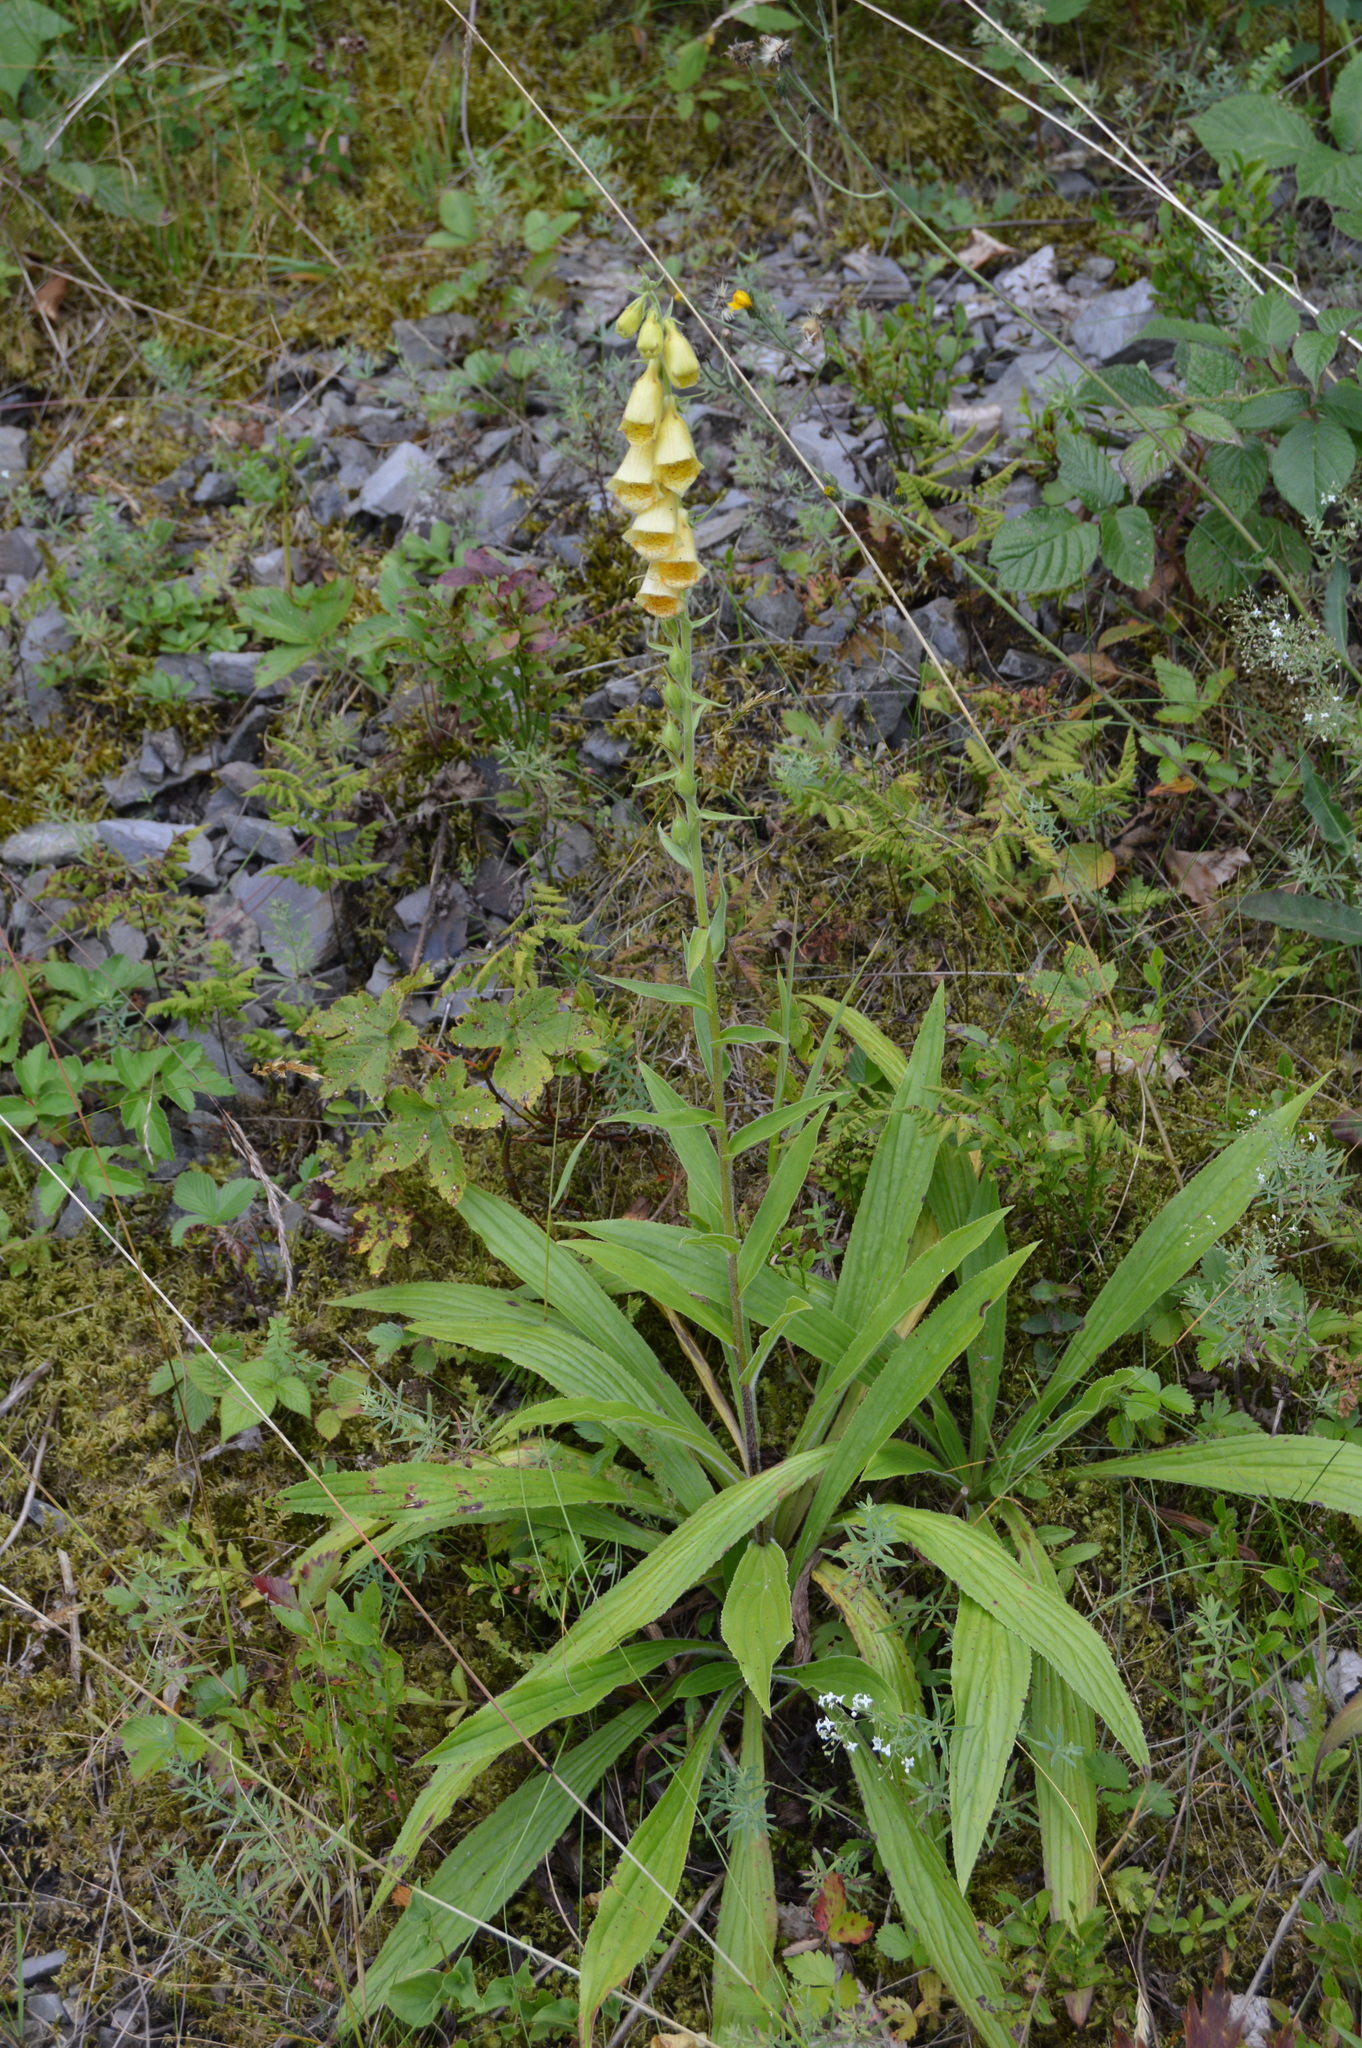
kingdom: Plantae
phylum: Tracheophyta
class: Magnoliopsida
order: Lamiales
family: Plantaginaceae
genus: Digitalis
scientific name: Digitalis grandiflora
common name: Yellow foxglove
